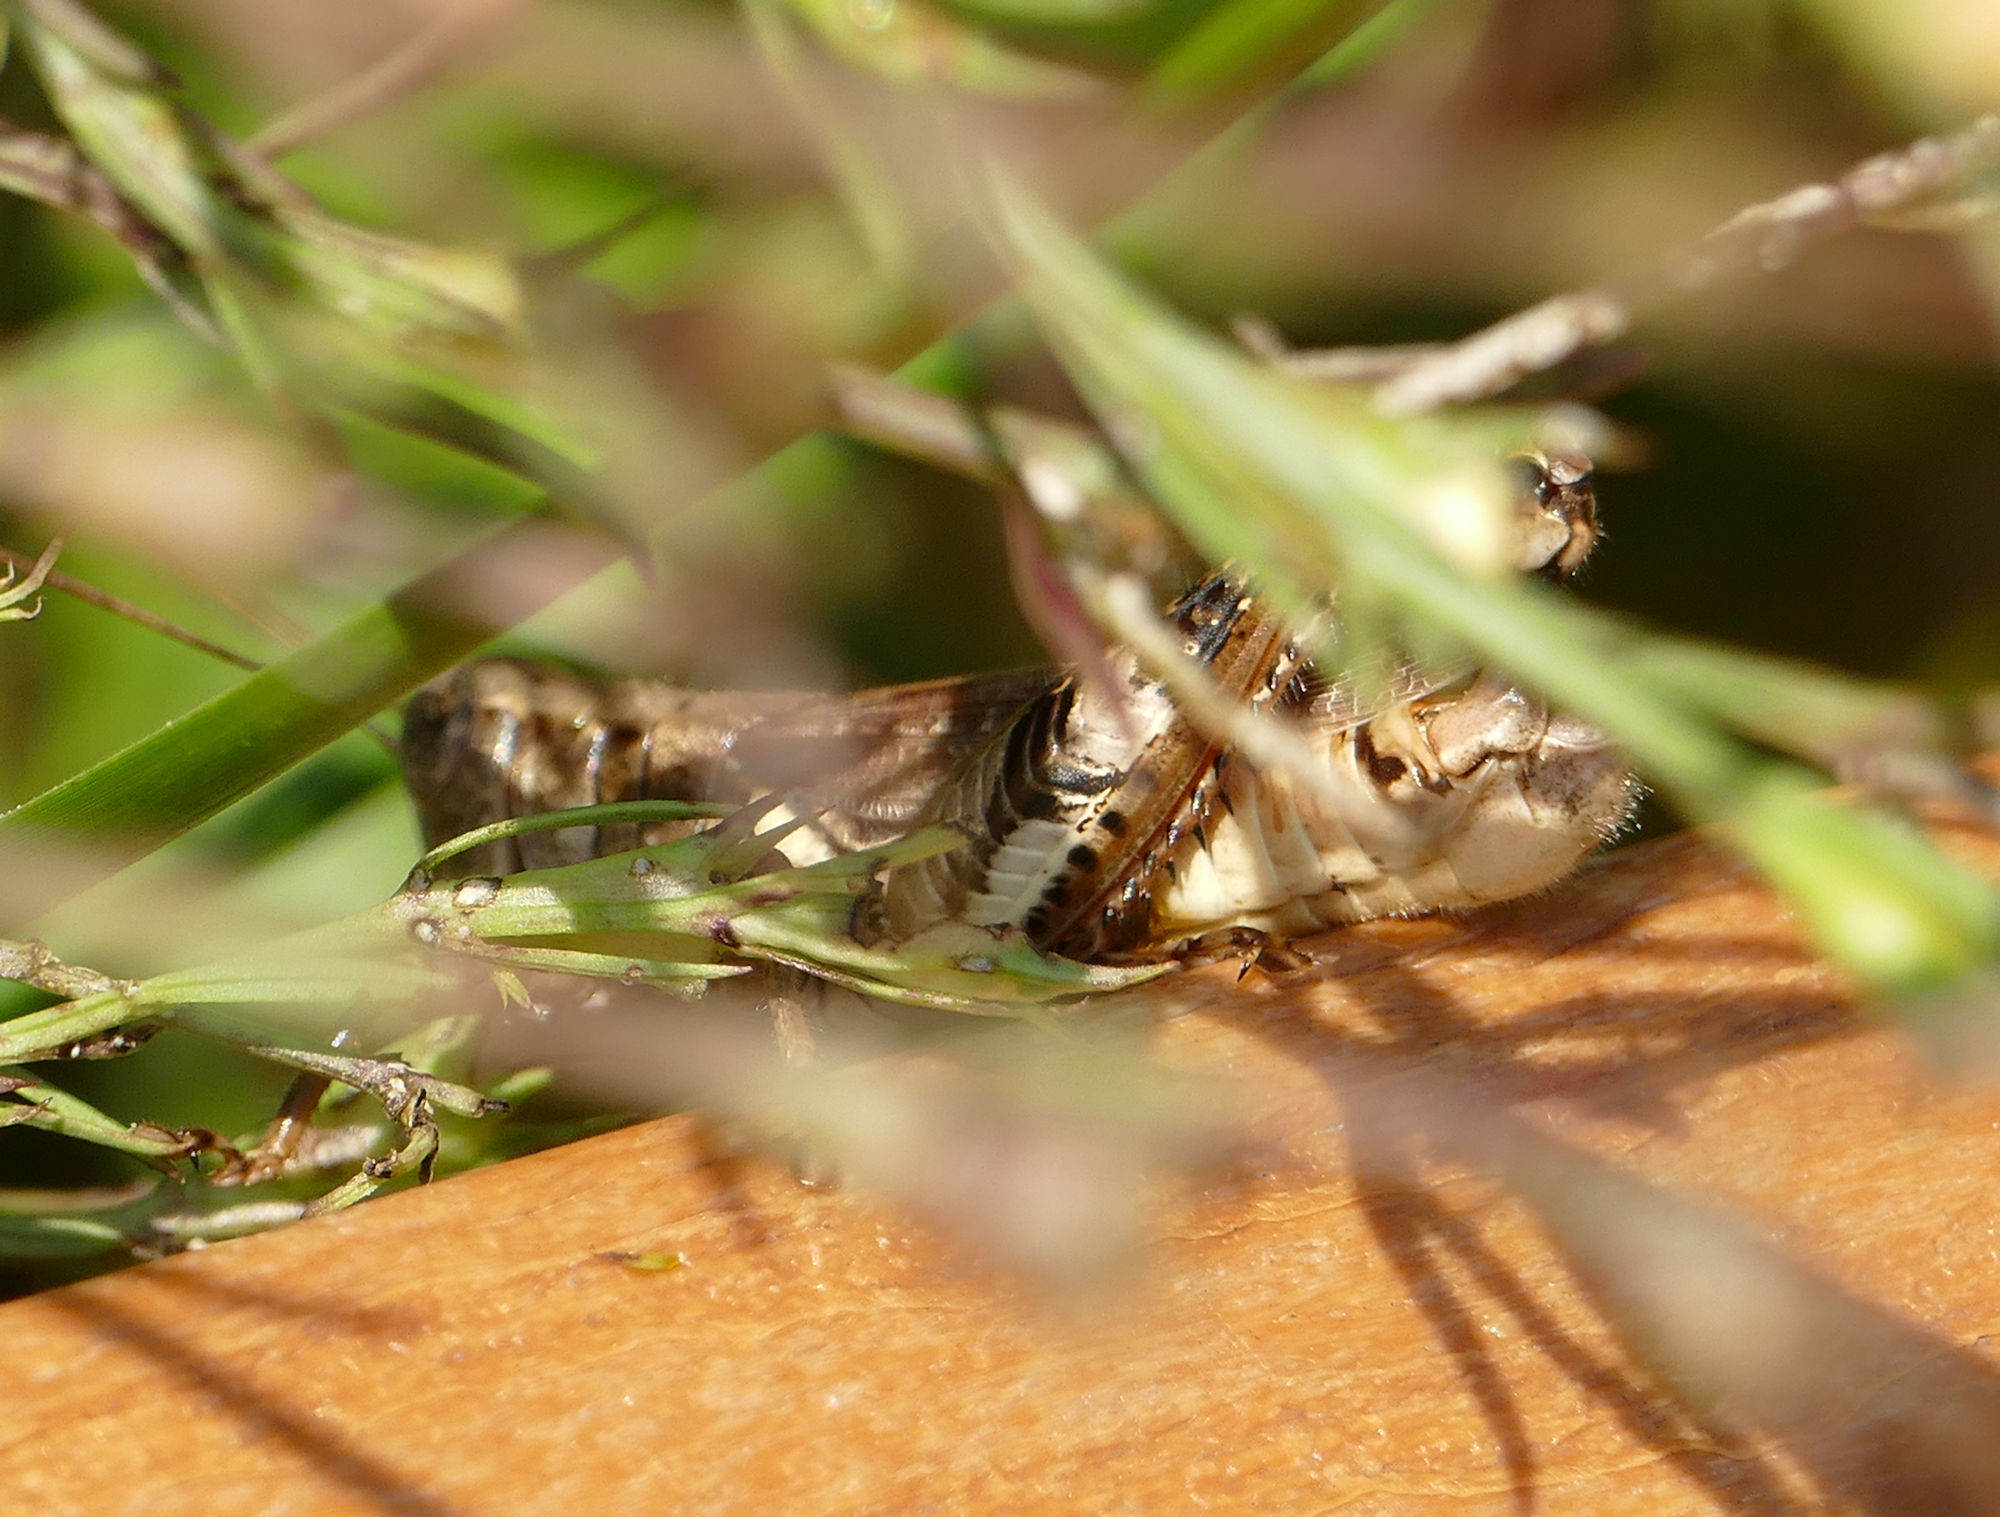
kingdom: Animalia
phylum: Arthropoda
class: Insecta
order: Orthoptera
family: Acrididae
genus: Melanoplus
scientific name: Melanoplus ponderosus
